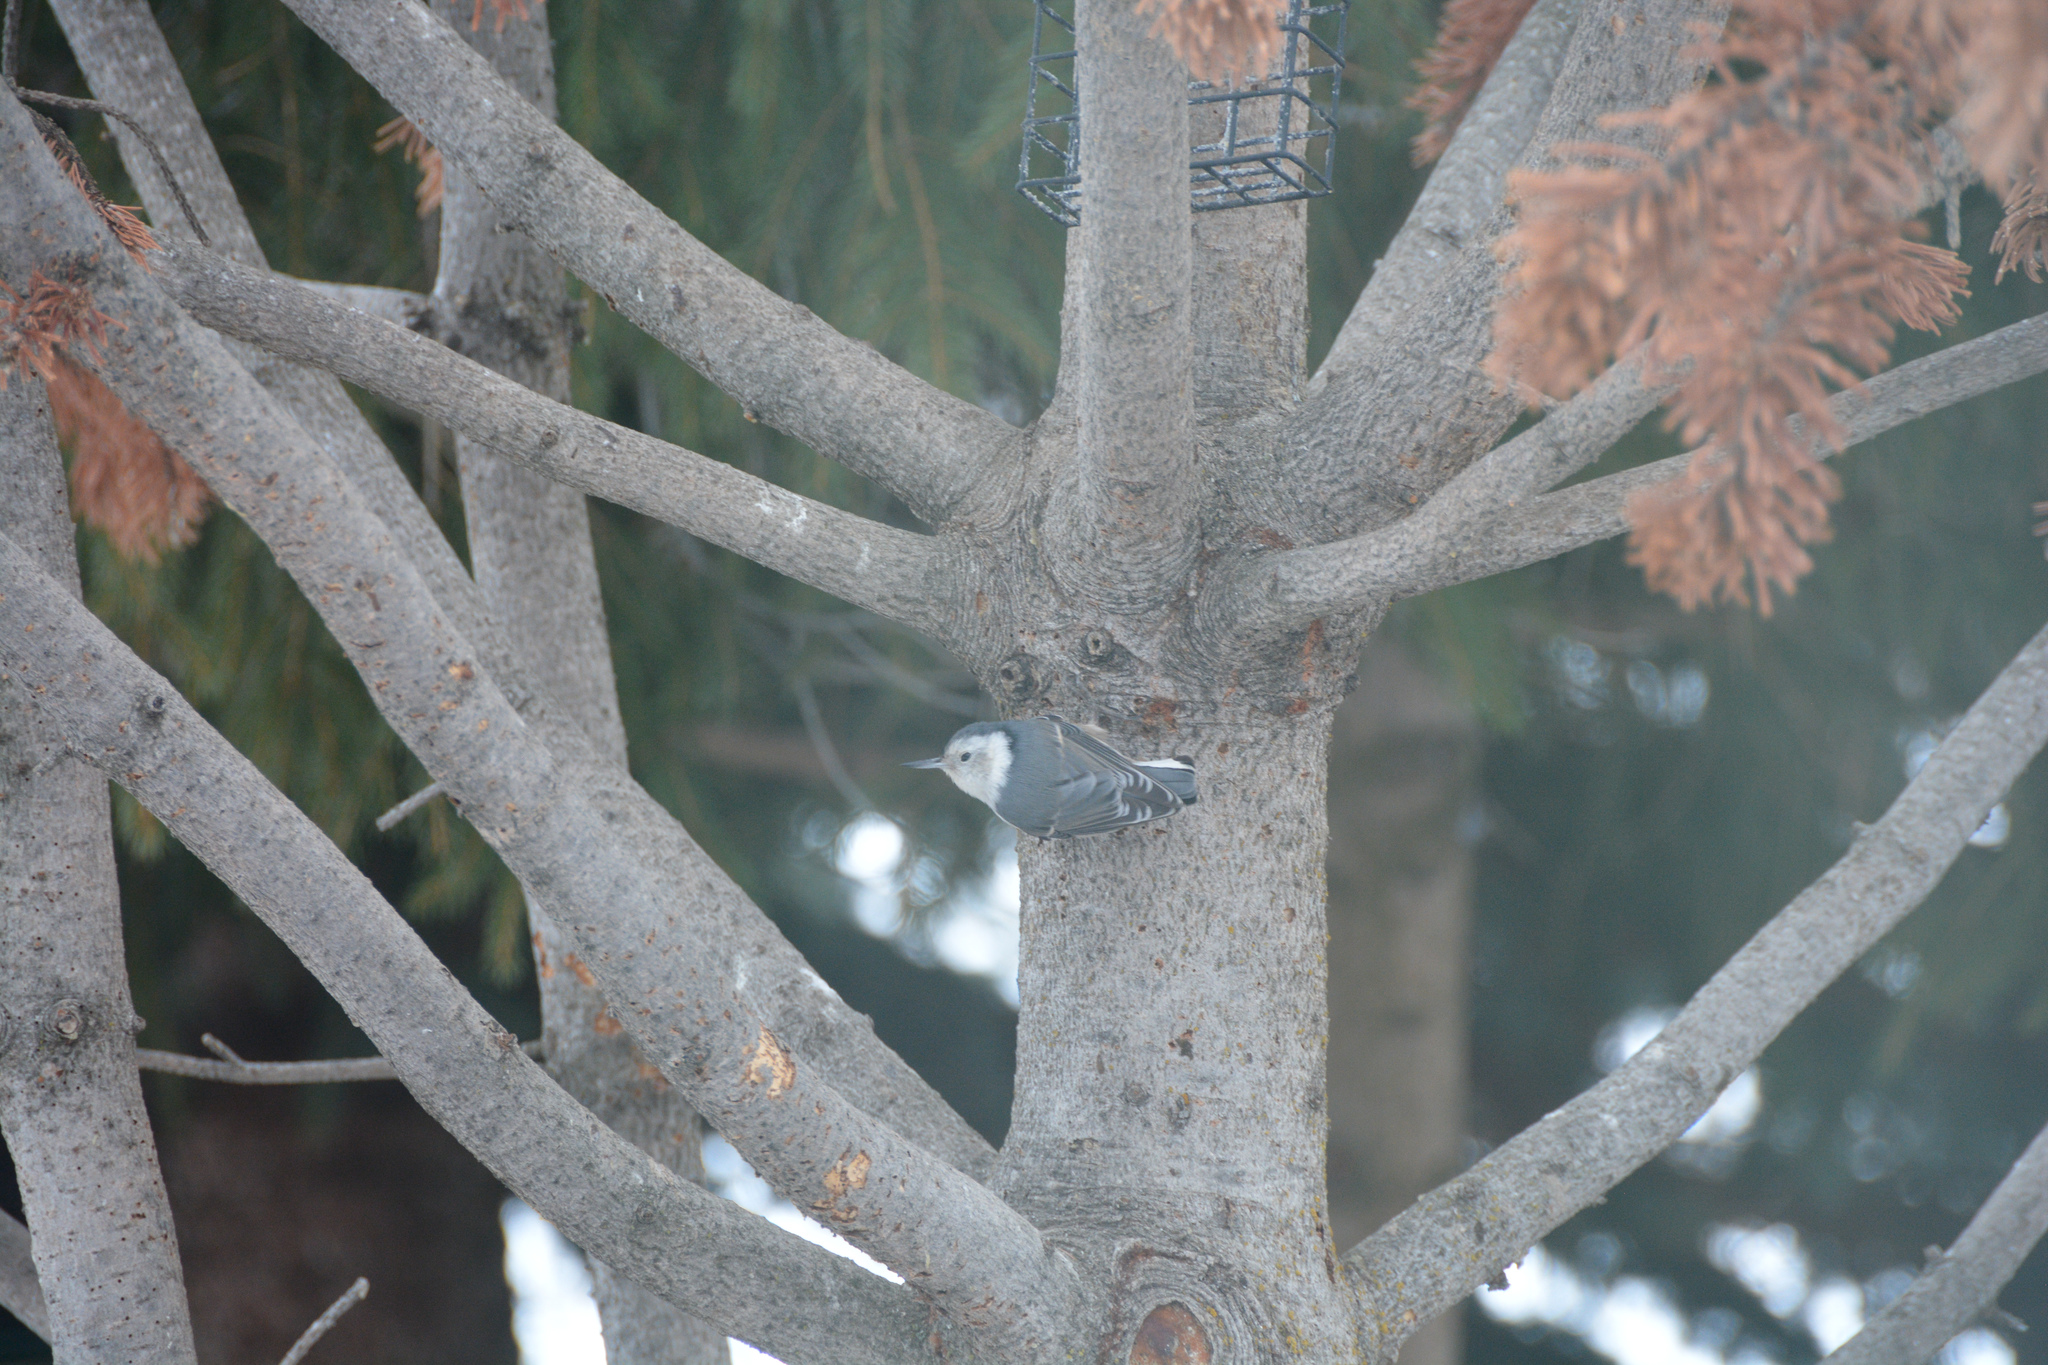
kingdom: Animalia
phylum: Chordata
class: Aves
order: Passeriformes
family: Sittidae
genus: Sitta
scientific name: Sitta carolinensis
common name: White-breasted nuthatch
